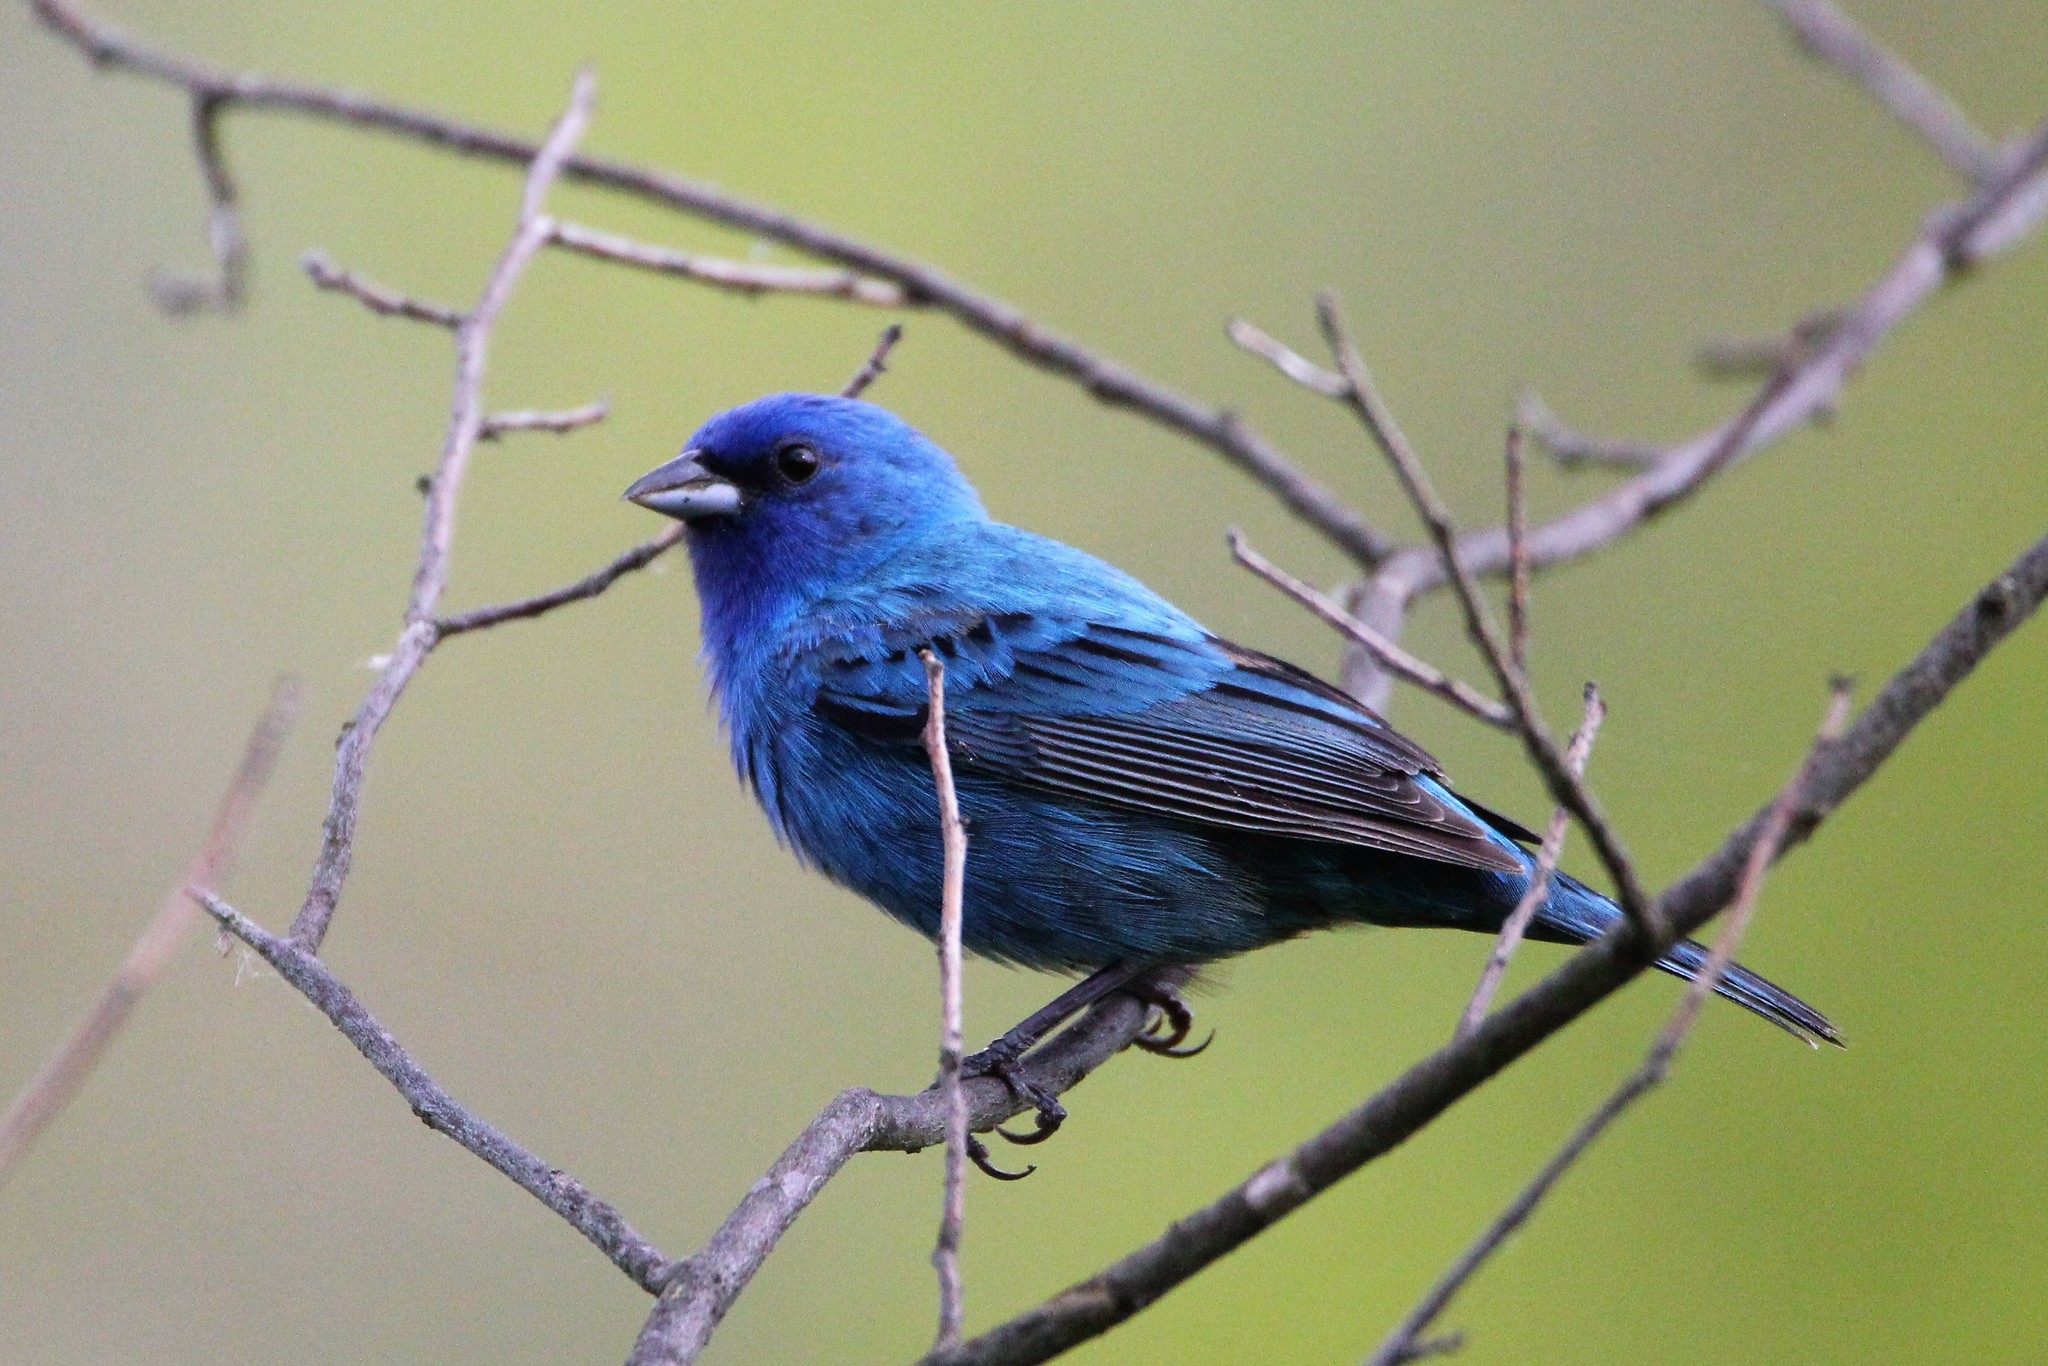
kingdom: Animalia
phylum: Chordata
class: Aves
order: Passeriformes
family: Cardinalidae
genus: Passerina
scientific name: Passerina cyanea
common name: Indigo bunting
